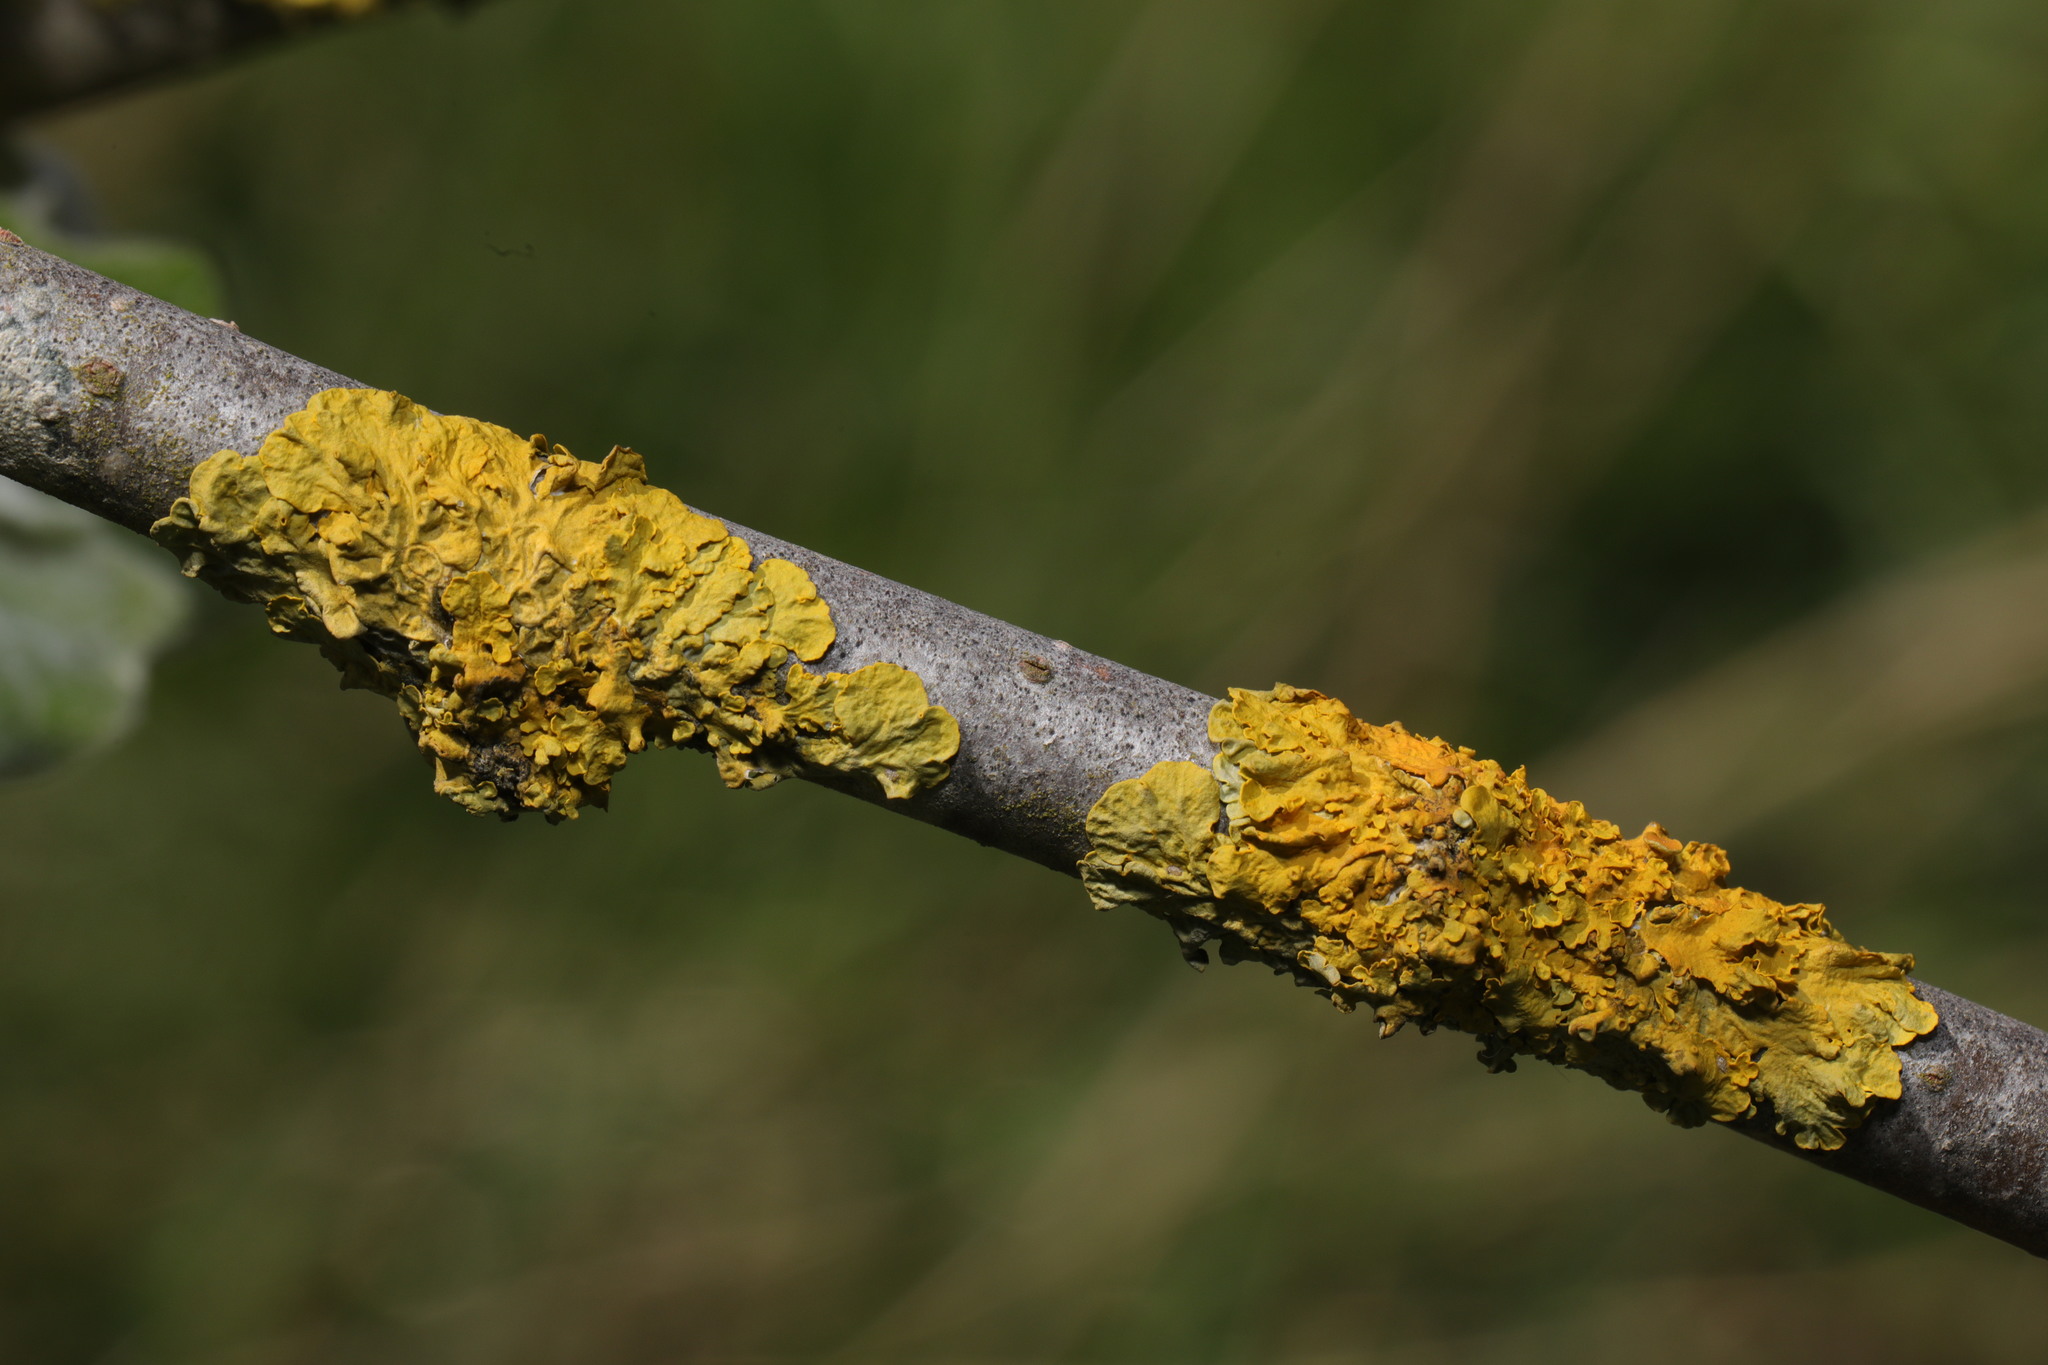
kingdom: Fungi
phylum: Ascomycota
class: Lecanoromycetes
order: Teloschistales
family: Teloschistaceae
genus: Xanthoria
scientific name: Xanthoria parietina
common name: Common orange lichen
